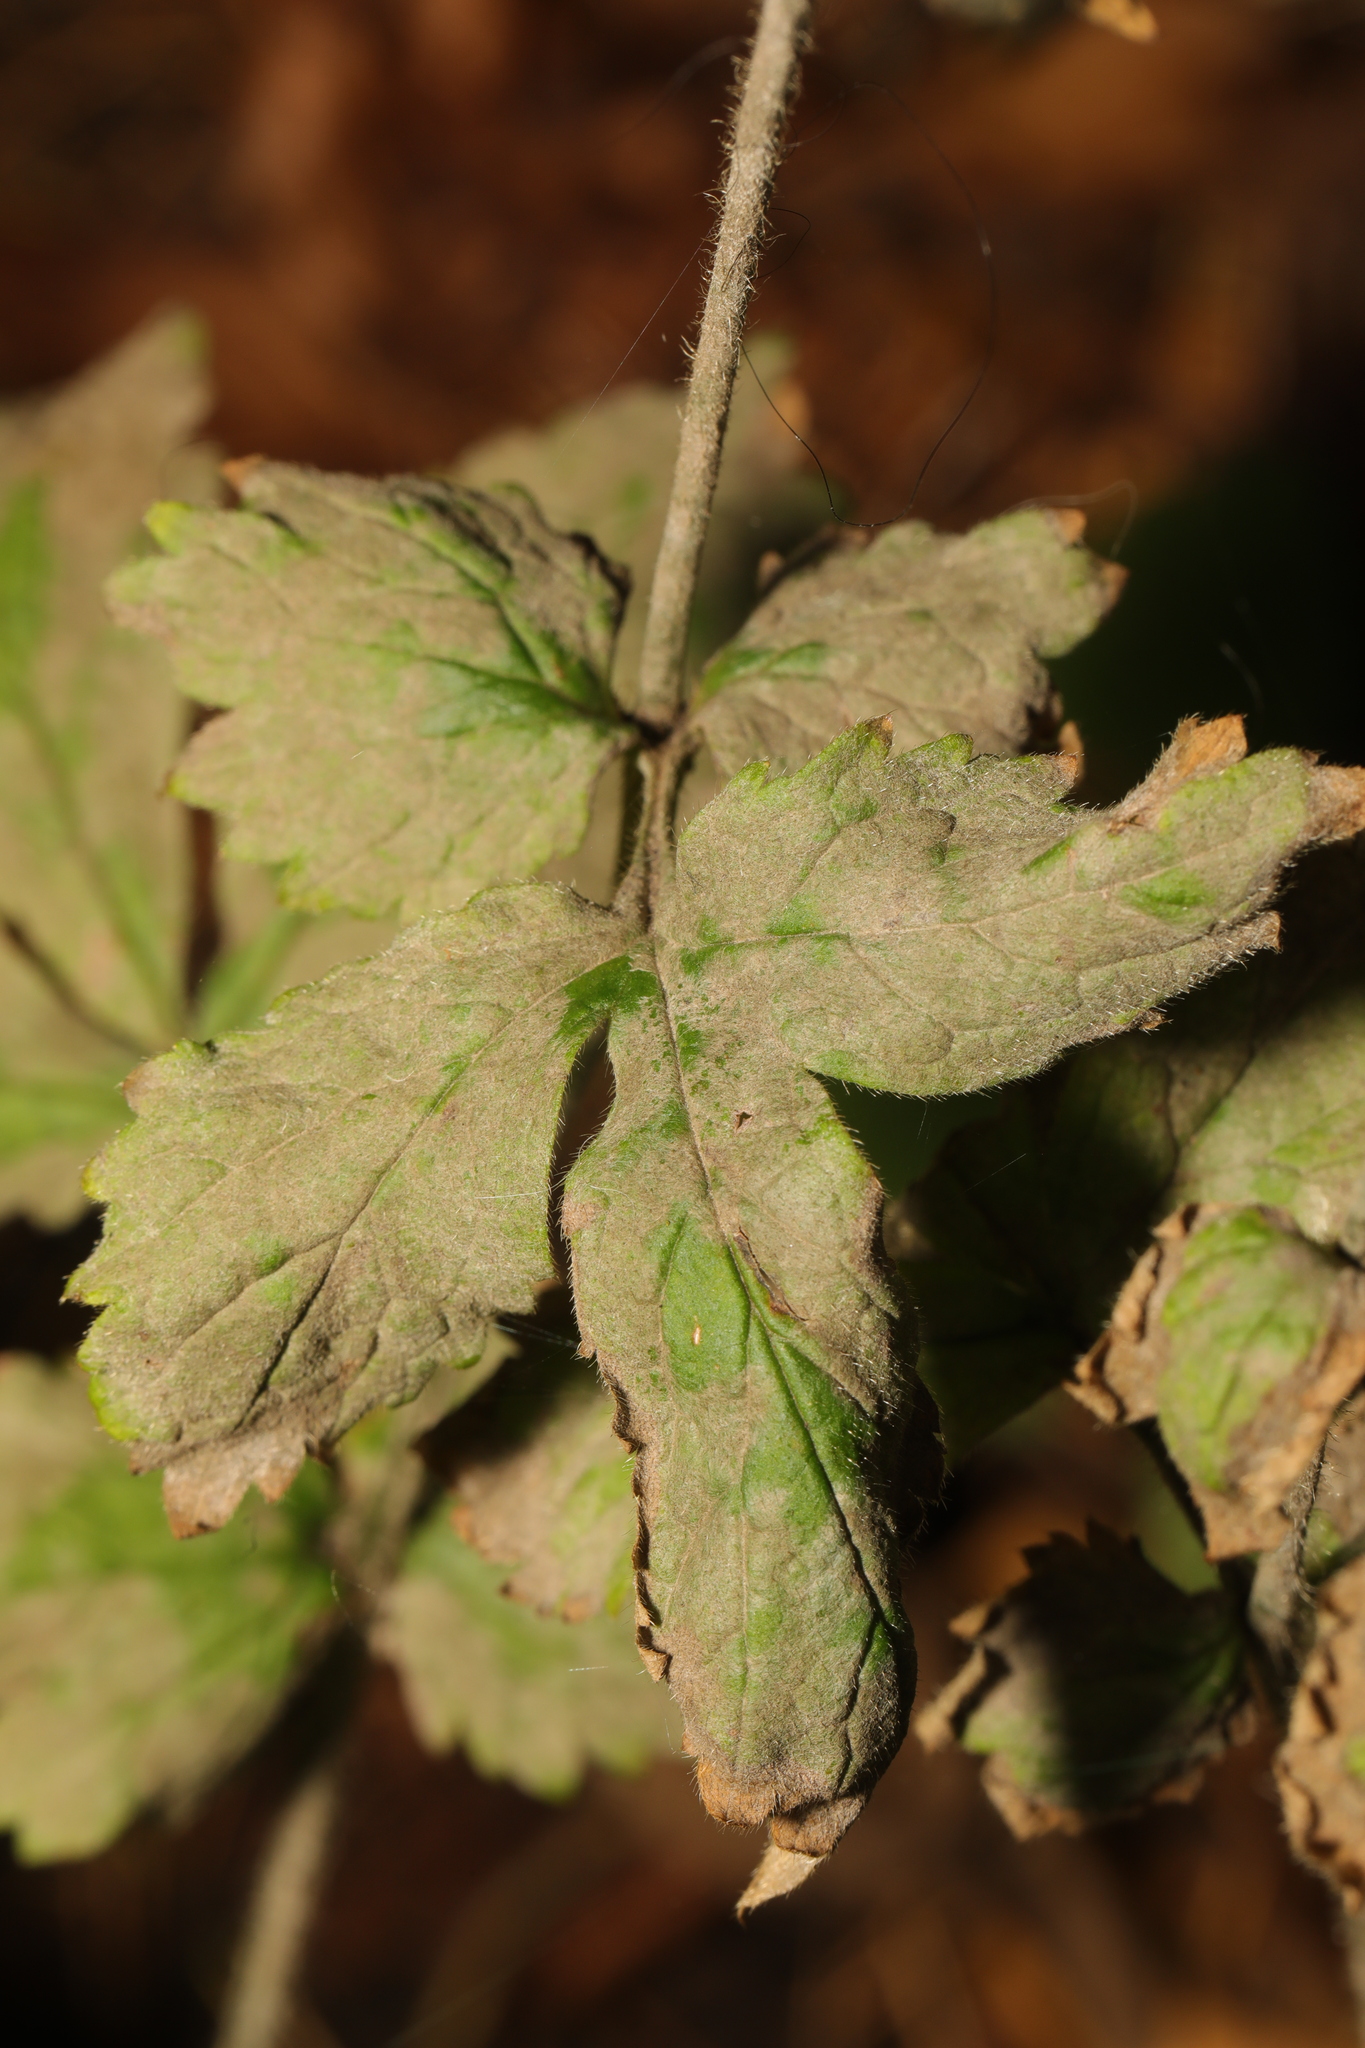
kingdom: Fungi
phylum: Ascomycota
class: Leotiomycetes
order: Helotiales
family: Erysiphaceae
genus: Podosphaera
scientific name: Podosphaera aphanis
